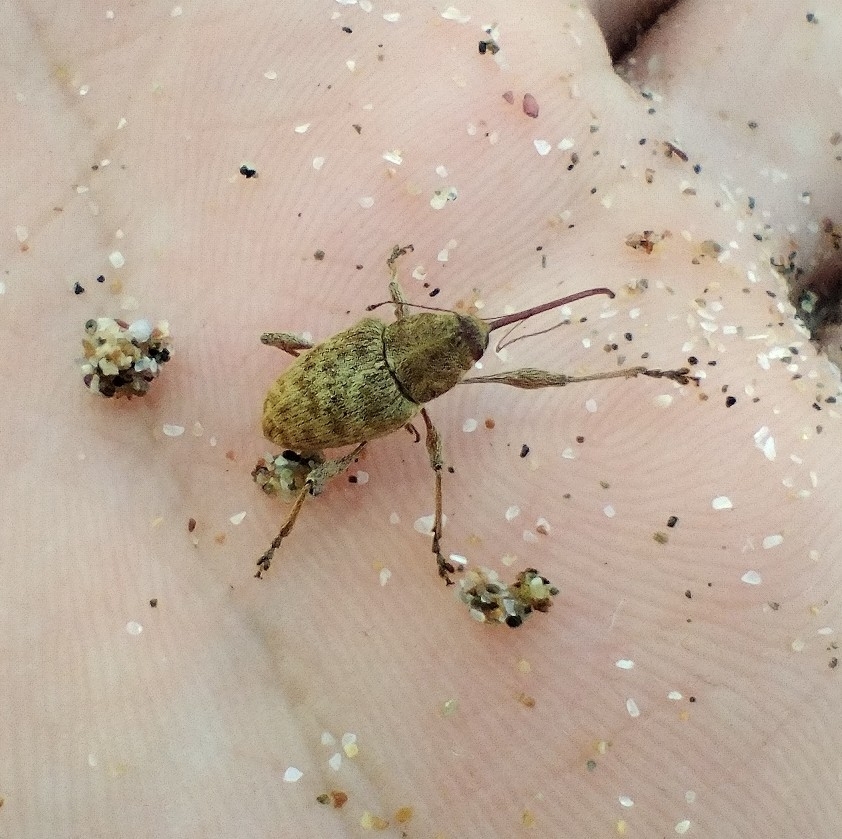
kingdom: Animalia
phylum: Arthropoda
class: Insecta
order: Coleoptera
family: Curculionidae
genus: Curculio
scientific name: Curculio elephas
